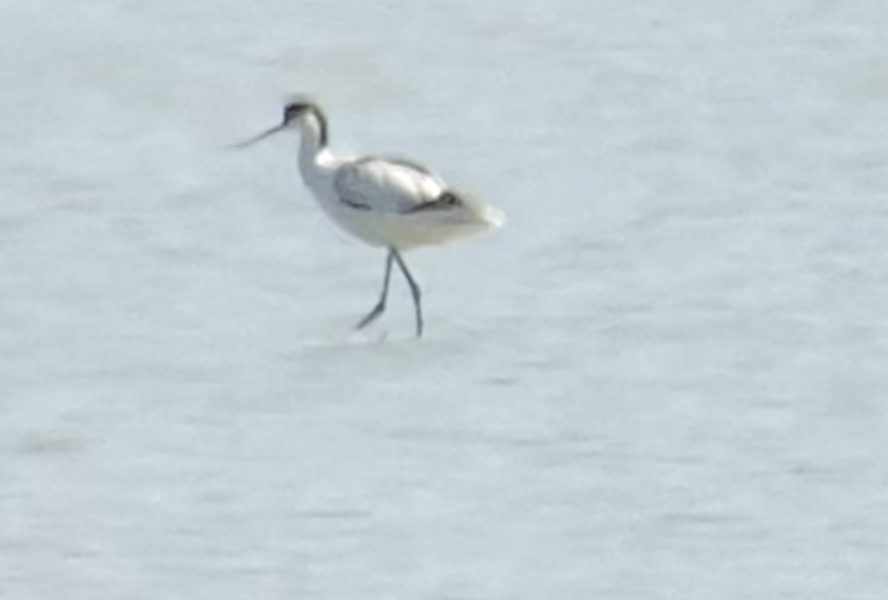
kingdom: Animalia
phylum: Chordata
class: Aves
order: Charadriiformes
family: Recurvirostridae
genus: Recurvirostra
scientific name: Recurvirostra avosetta
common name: Pied avocet
